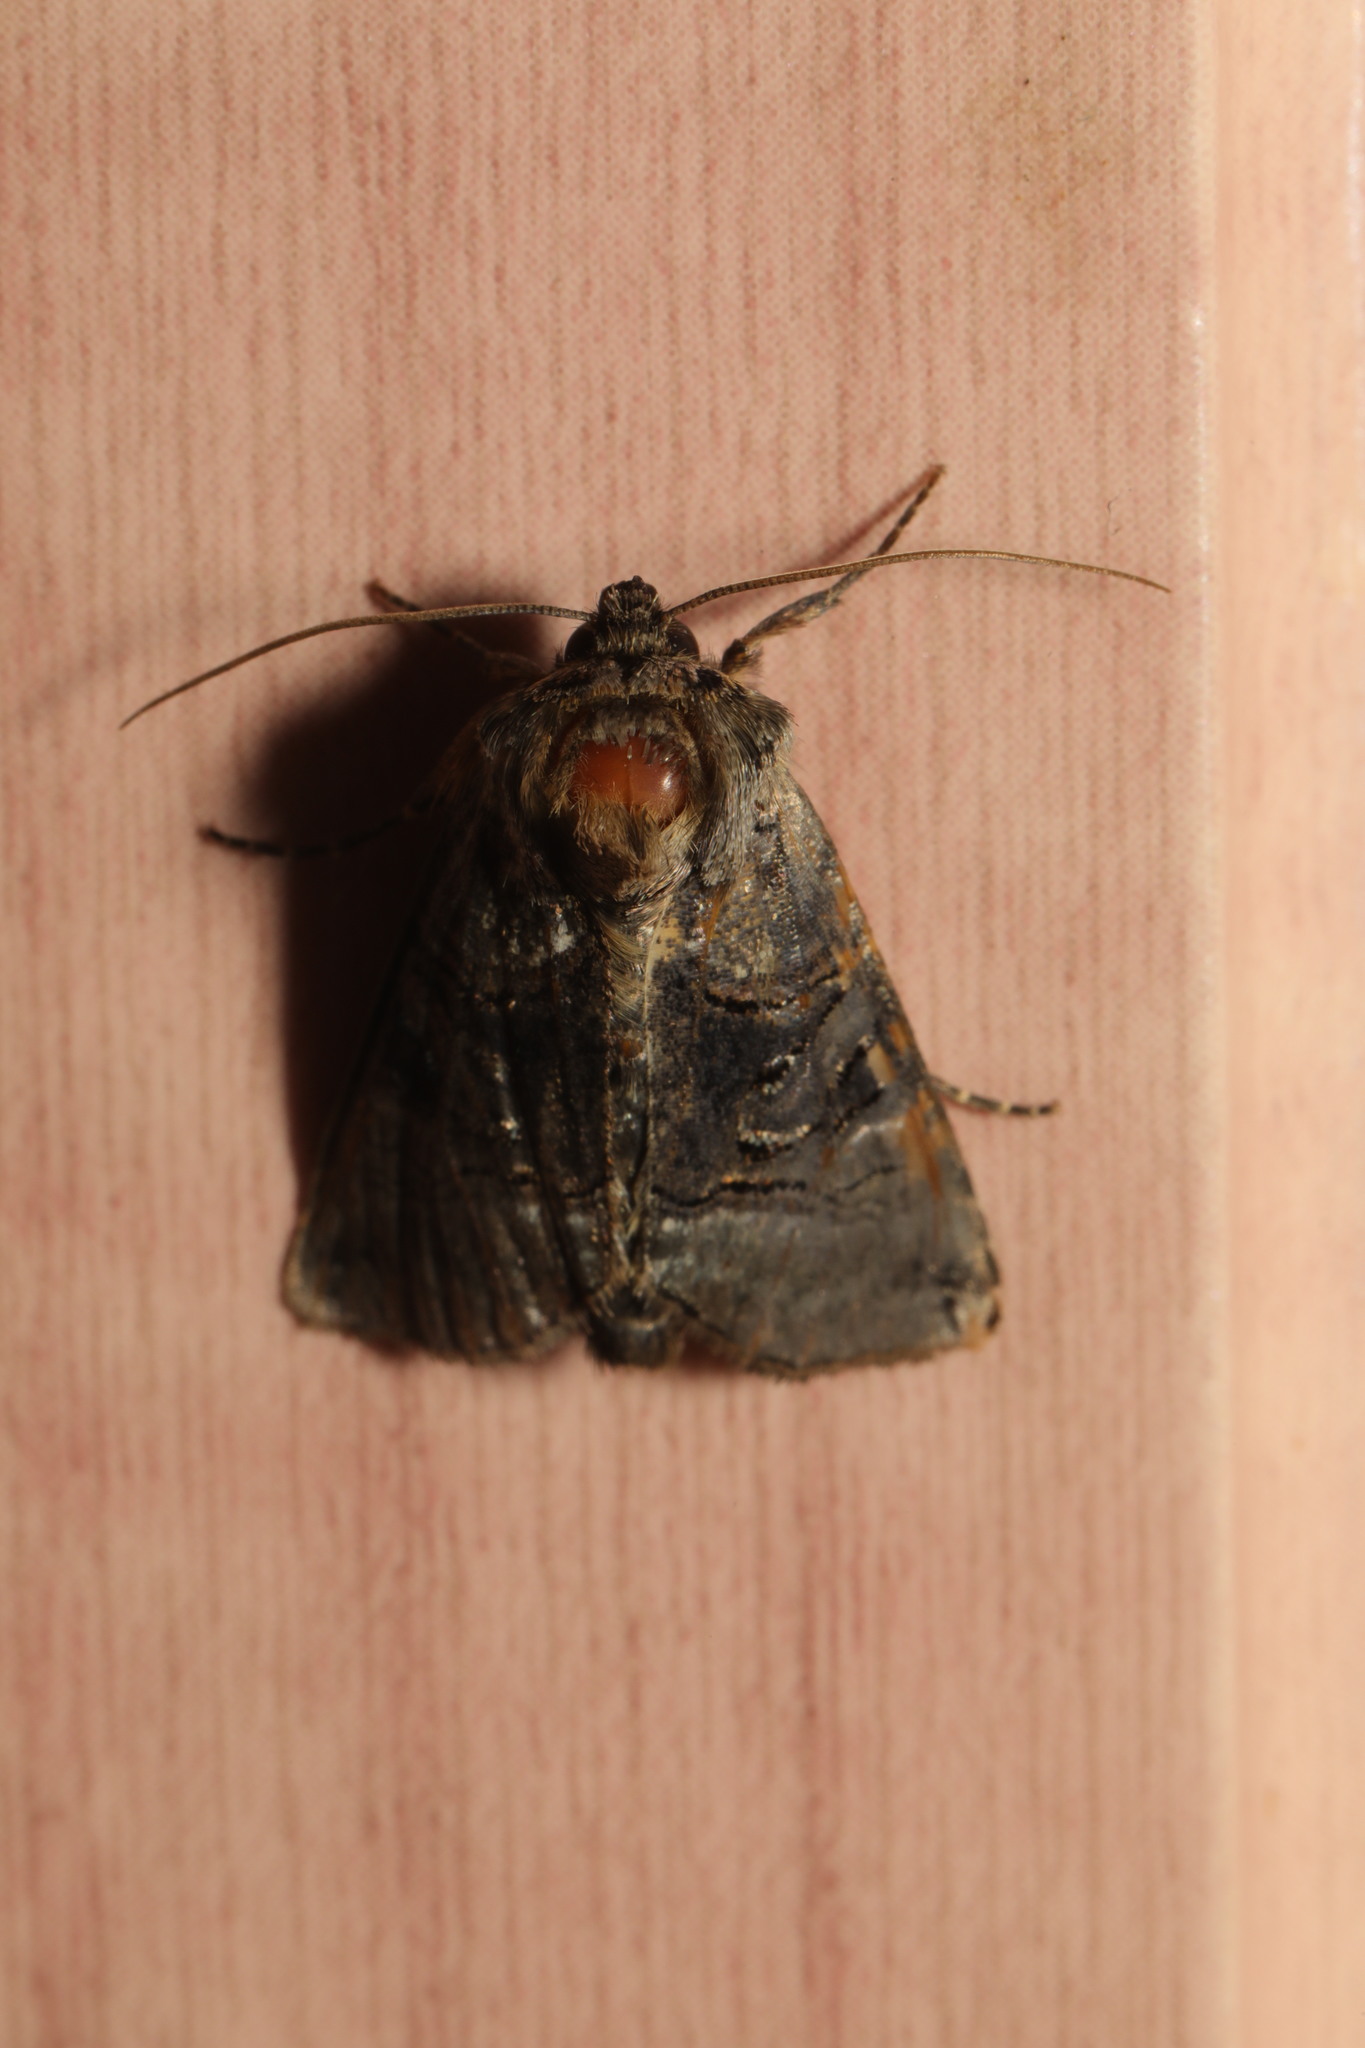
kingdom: Animalia
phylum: Arthropoda
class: Insecta
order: Lepidoptera
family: Noctuidae
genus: Abrostola
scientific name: Abrostola tripartita
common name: Spectacle
